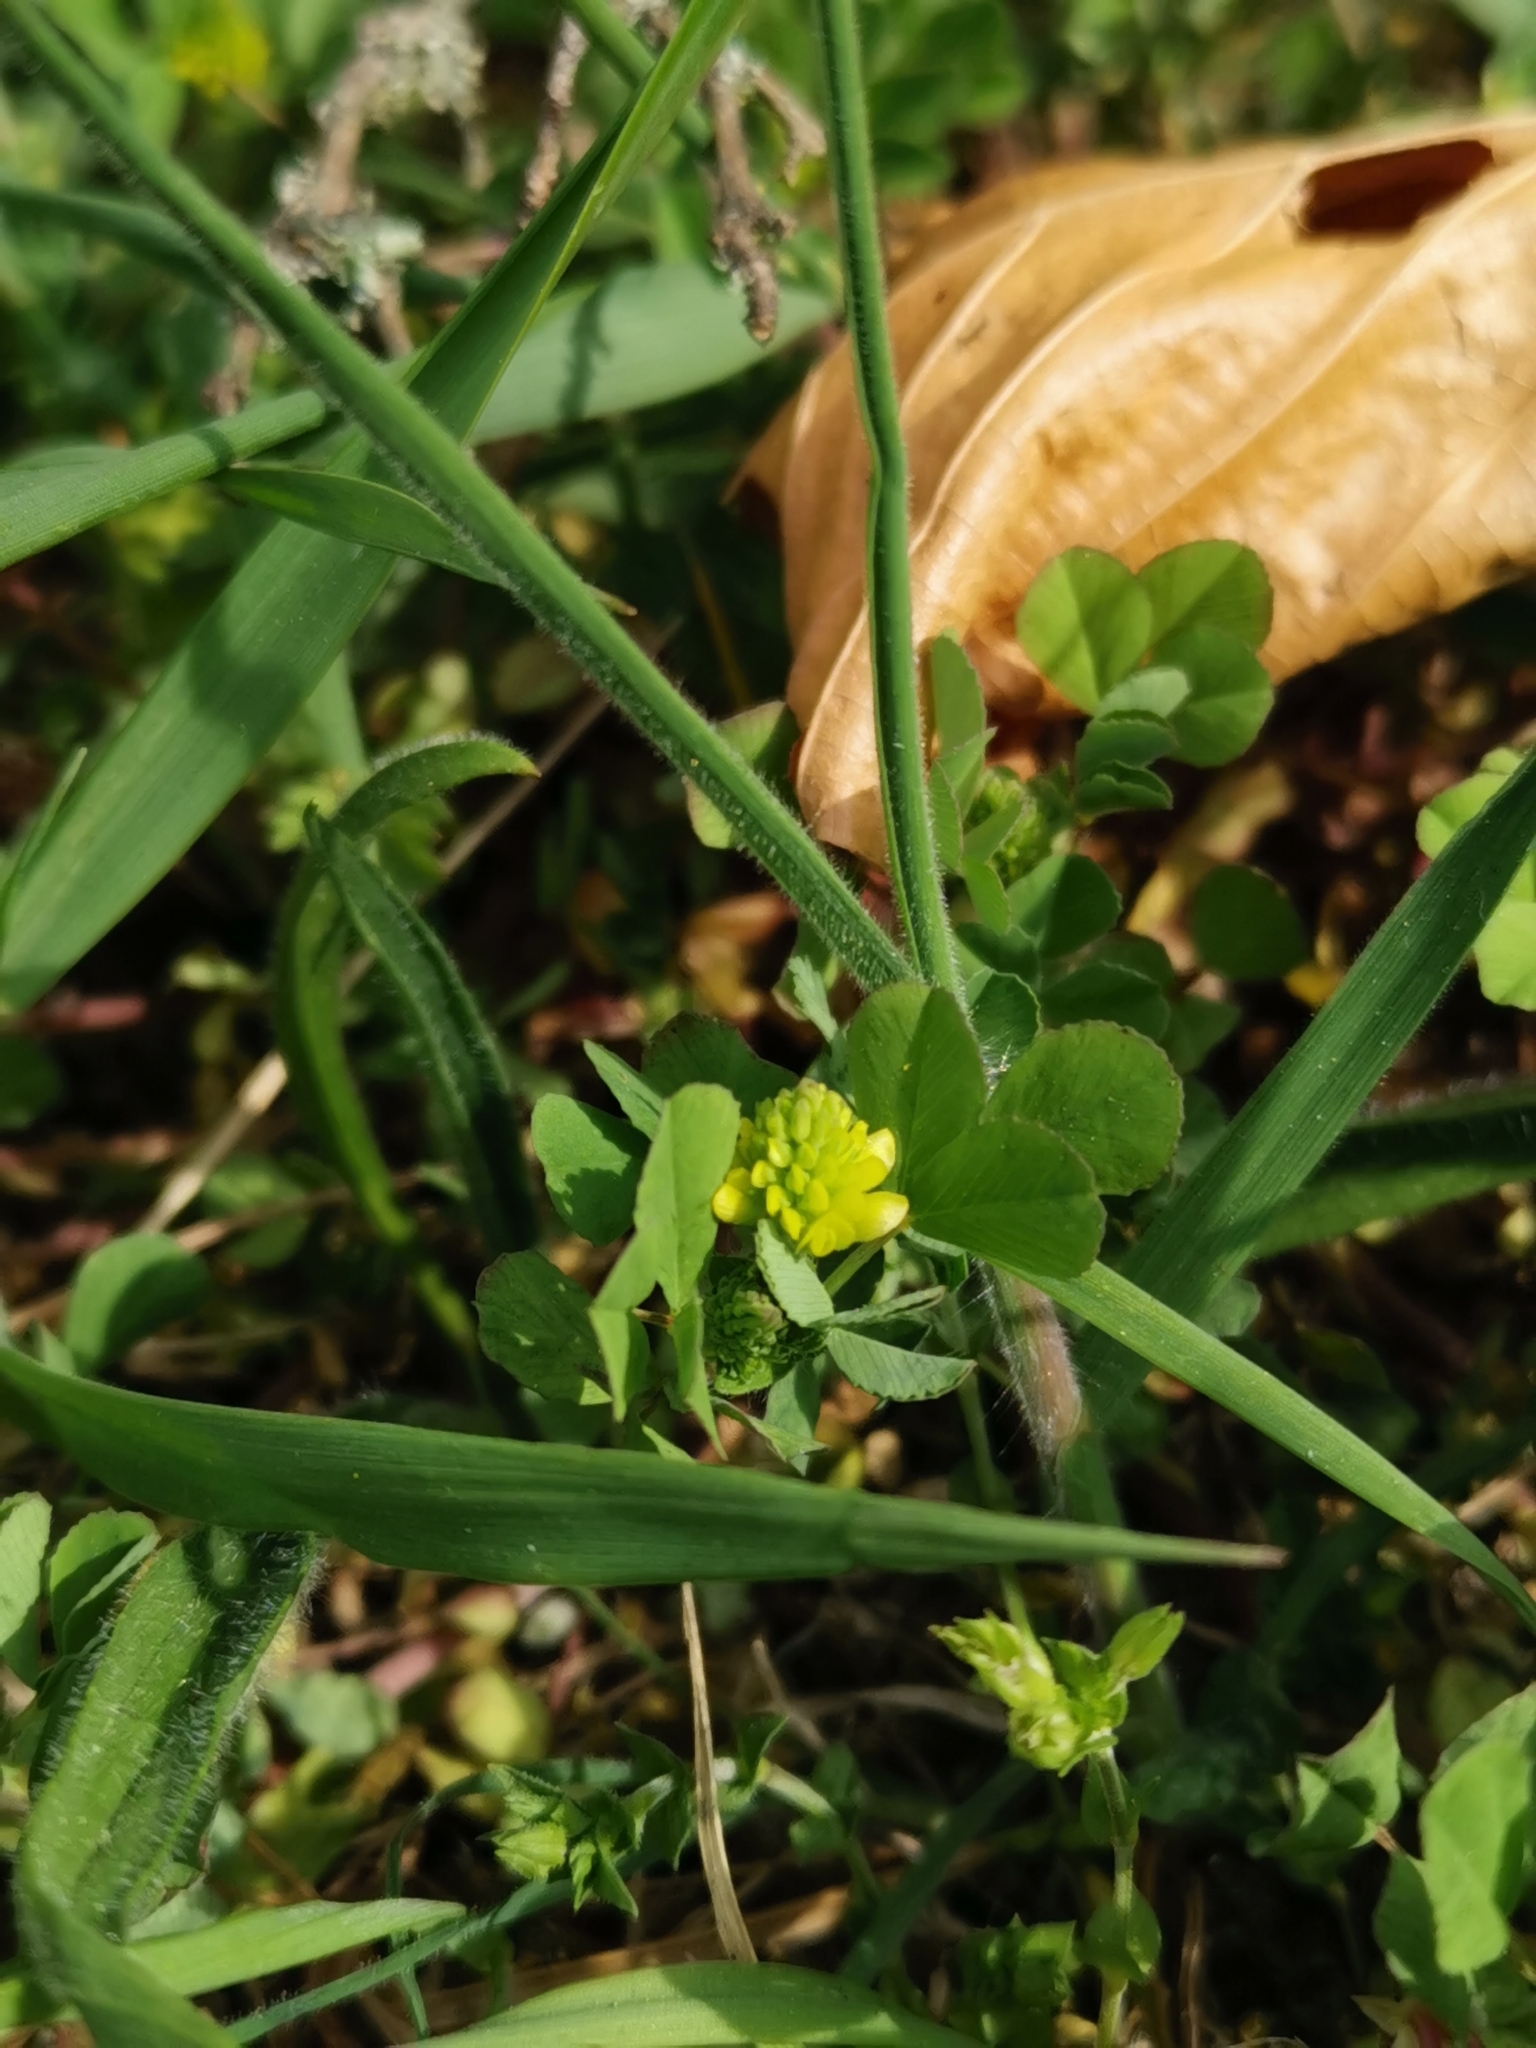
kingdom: Plantae
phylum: Tracheophyta
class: Magnoliopsida
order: Fabales
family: Fabaceae
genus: Trifolium
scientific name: Trifolium campestre
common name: Field clover
